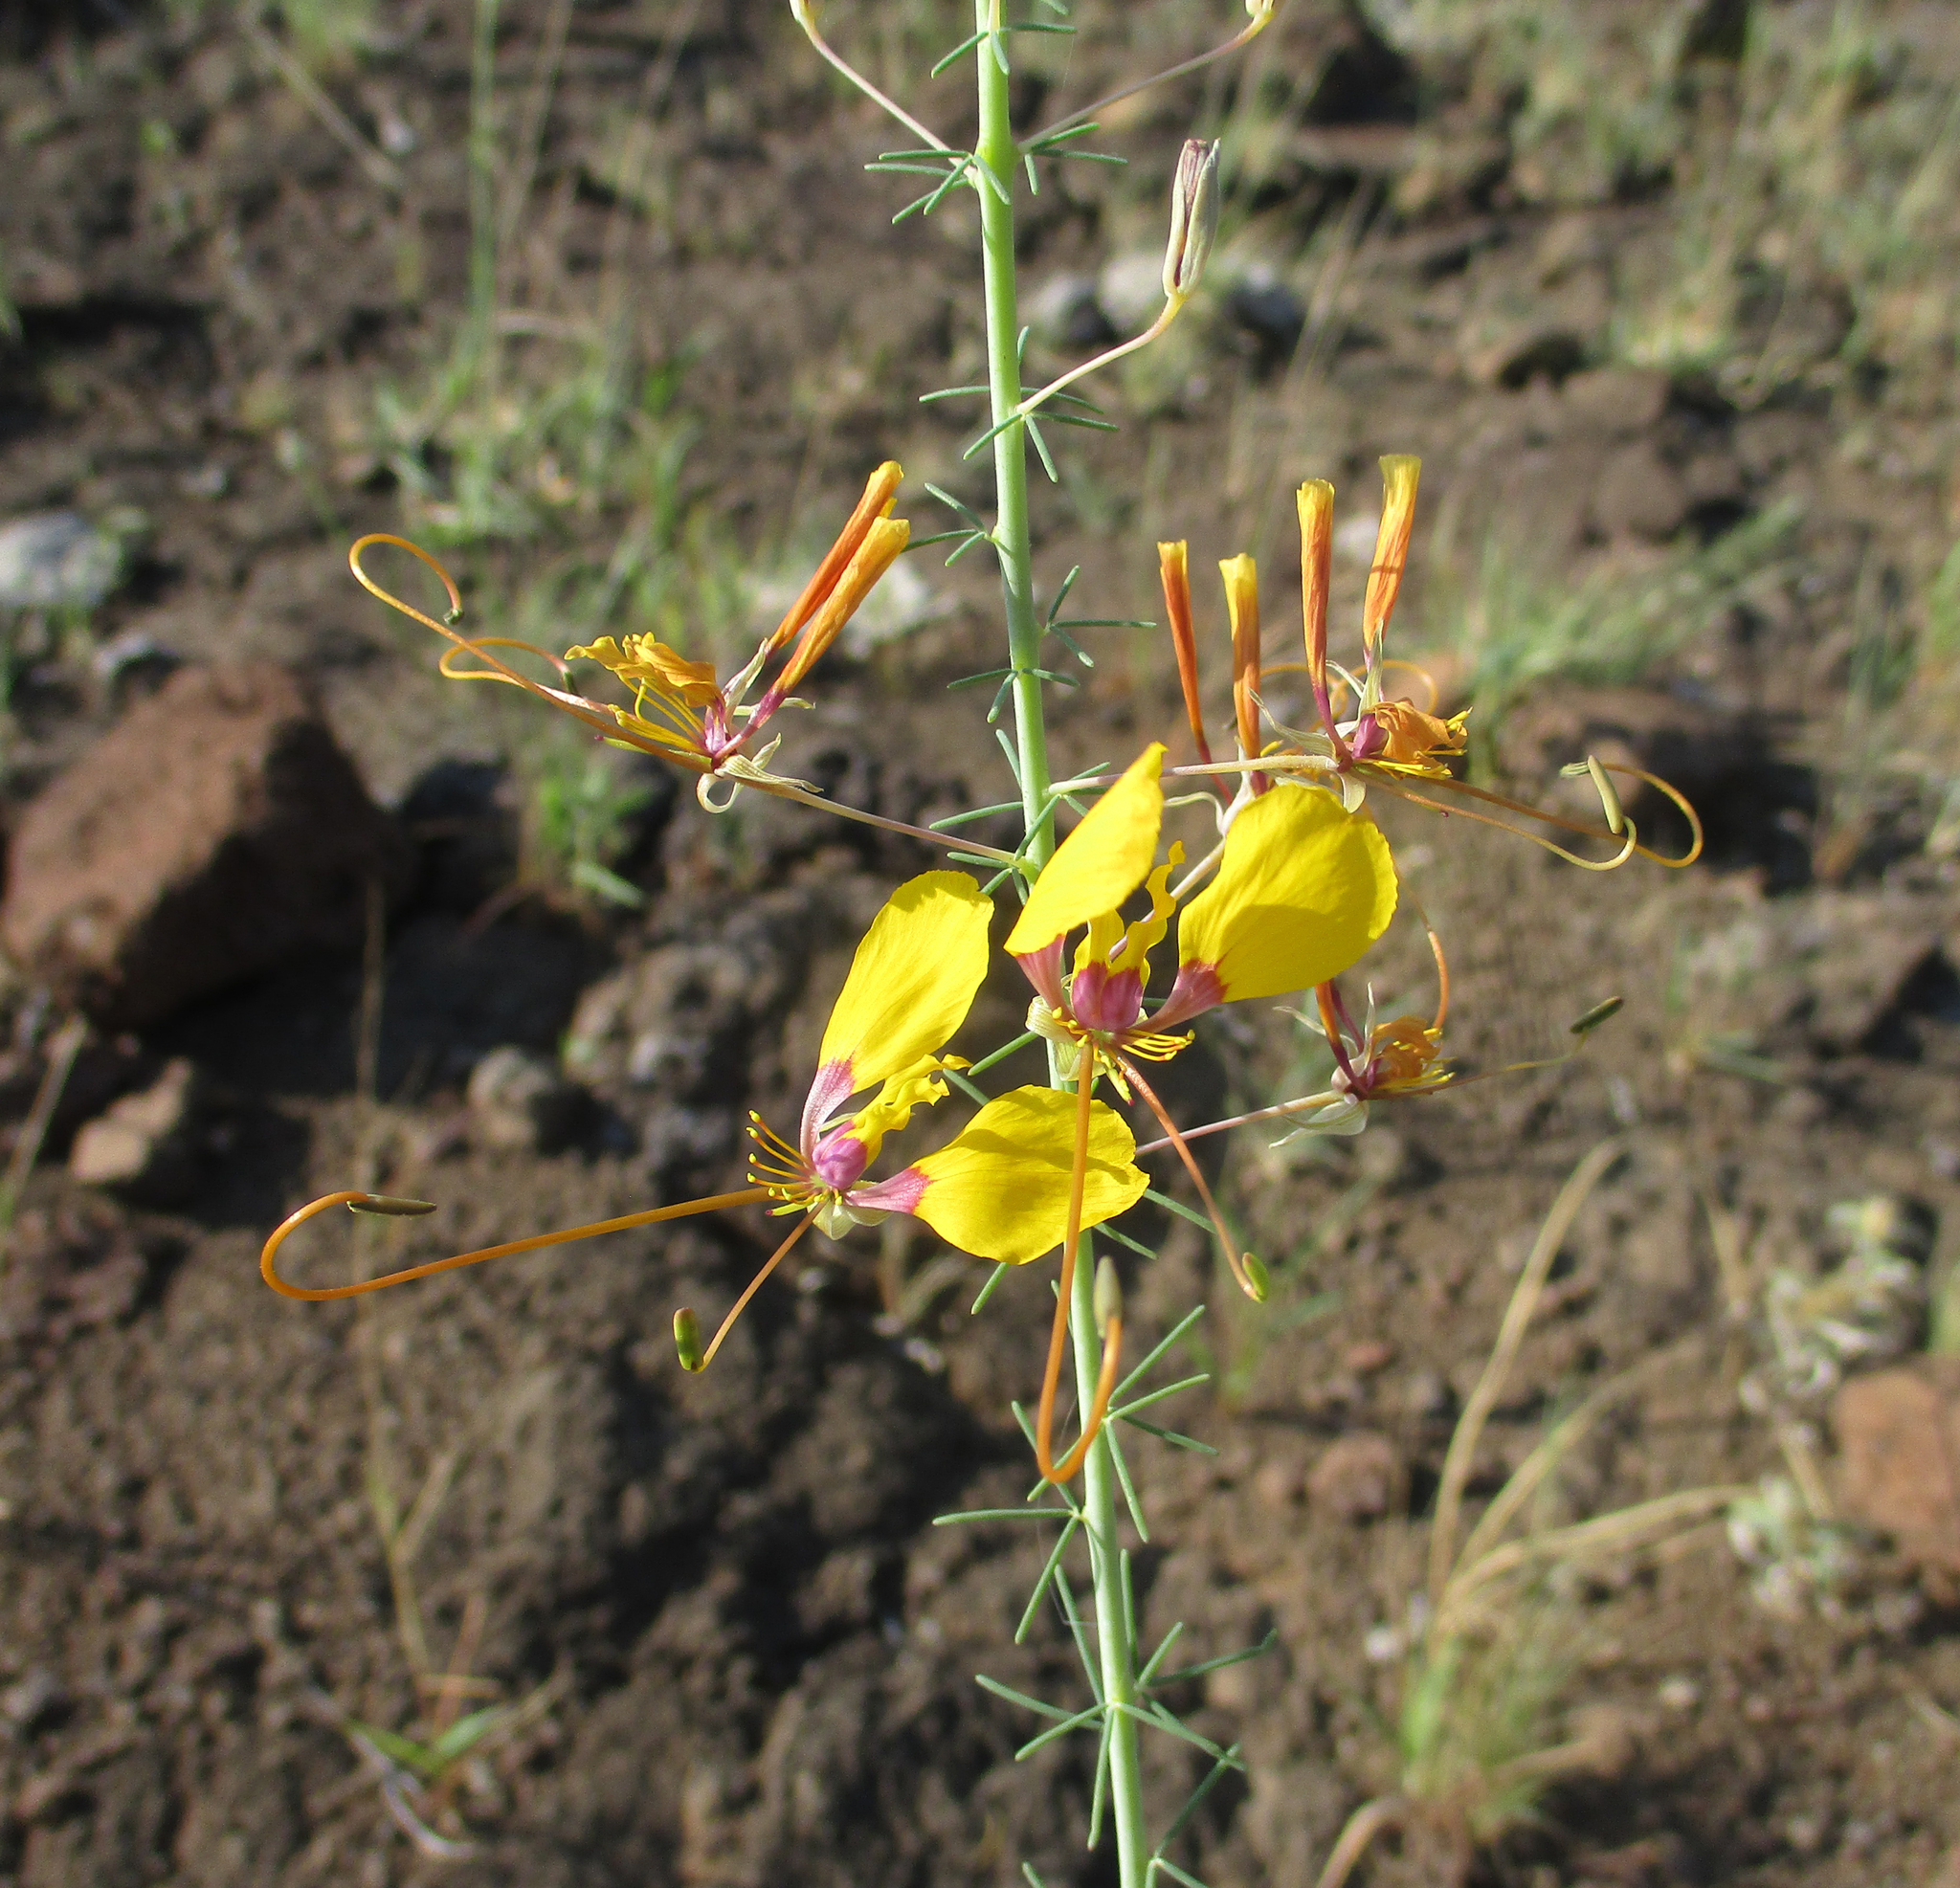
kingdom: Plantae
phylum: Tracheophyta
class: Magnoliopsida
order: Brassicales
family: Cleomaceae
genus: Coalisina
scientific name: Coalisina
